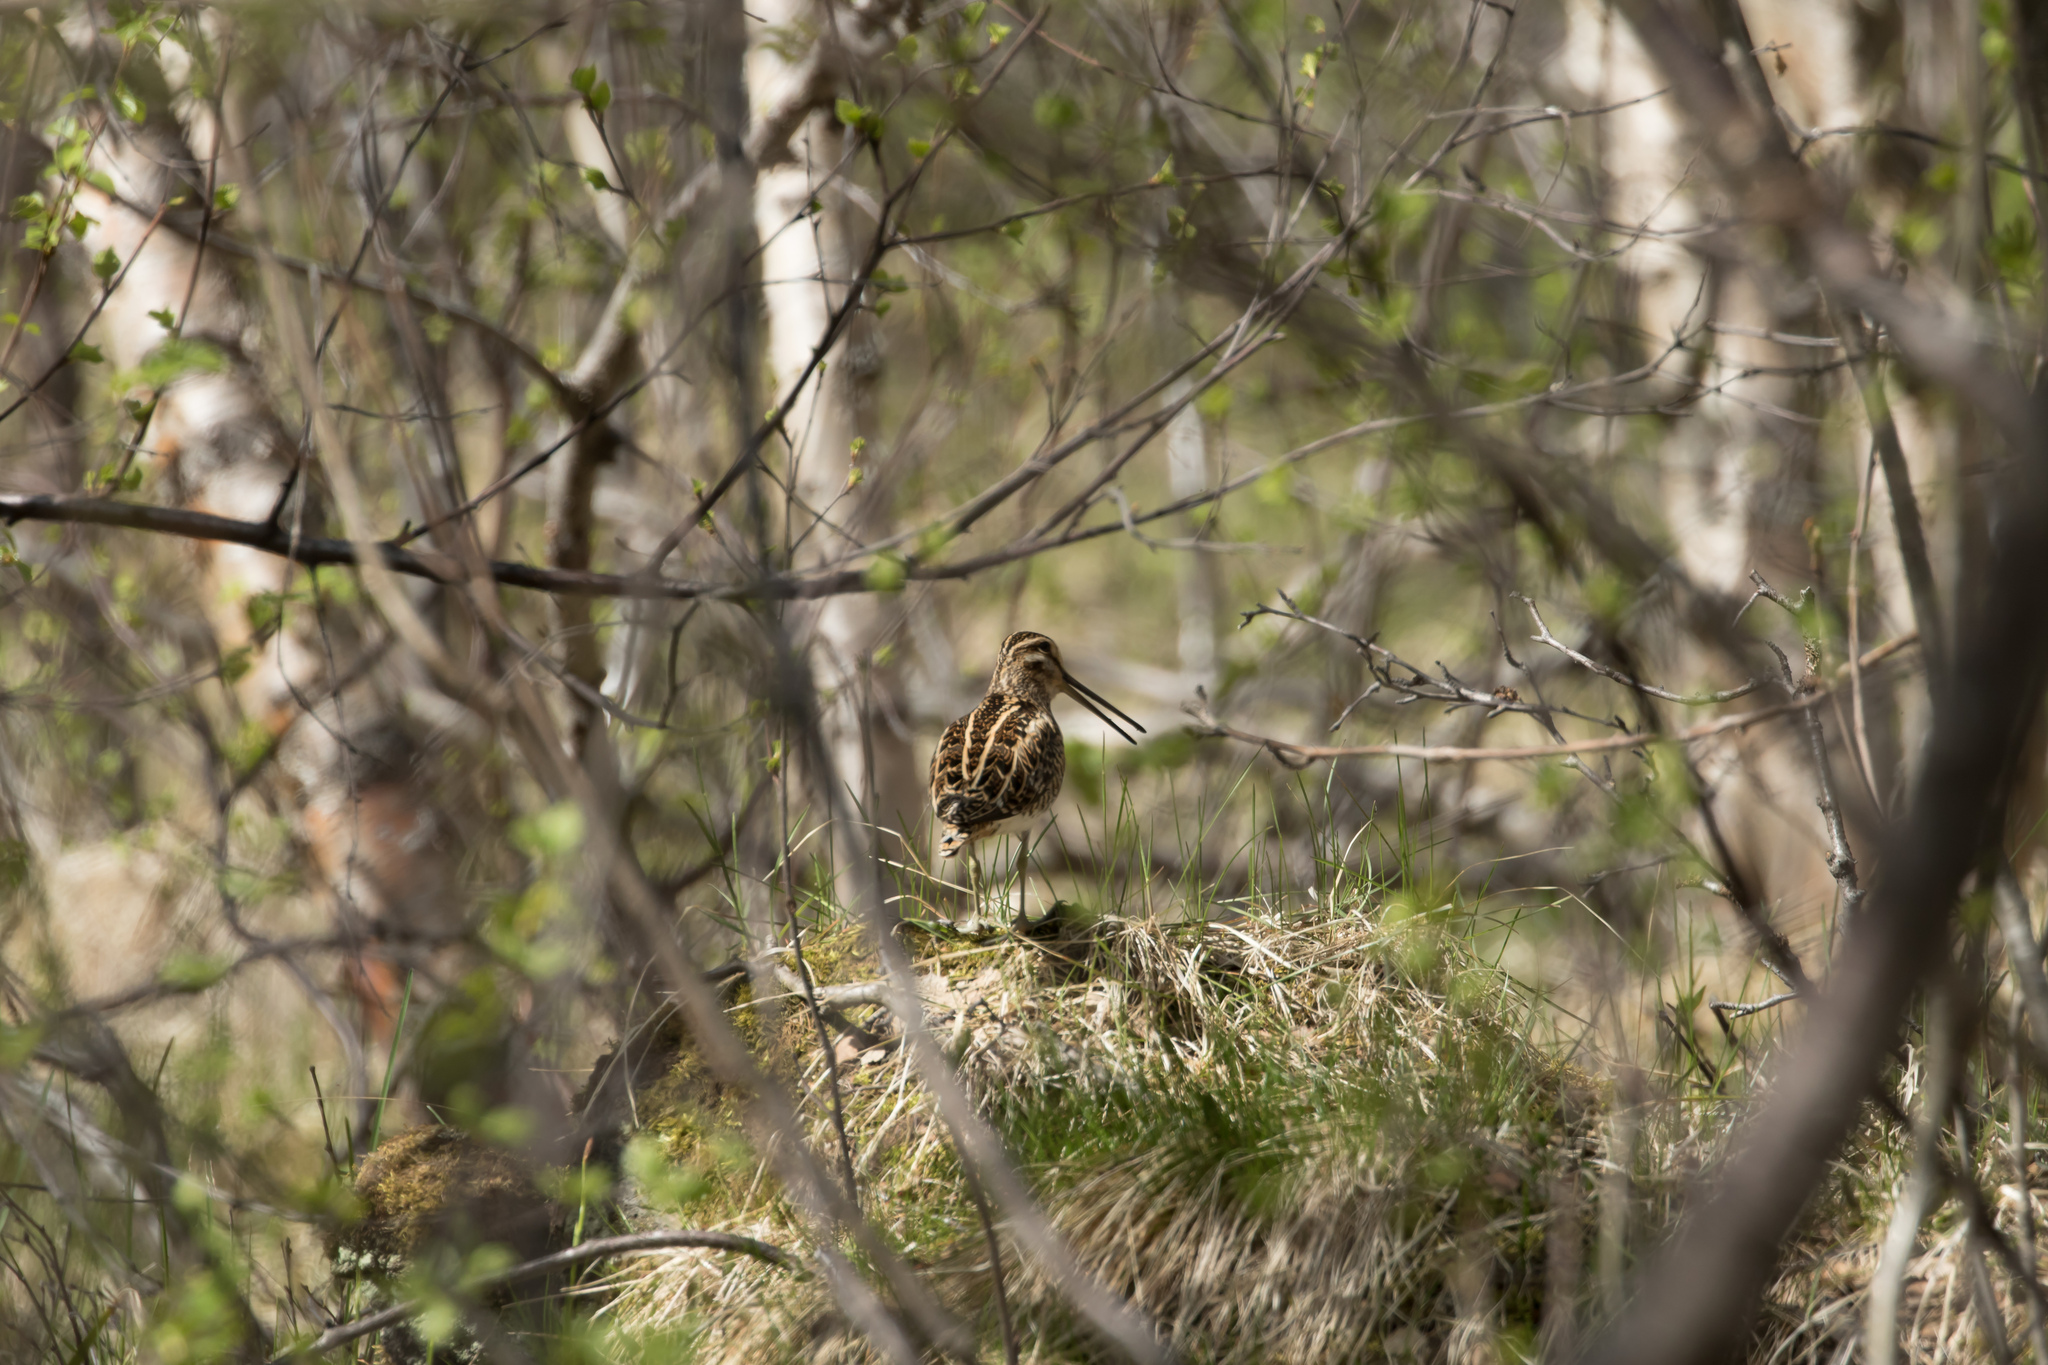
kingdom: Animalia
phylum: Chordata
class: Aves
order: Charadriiformes
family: Scolopacidae
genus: Gallinago
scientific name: Gallinago gallinago
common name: Common snipe
